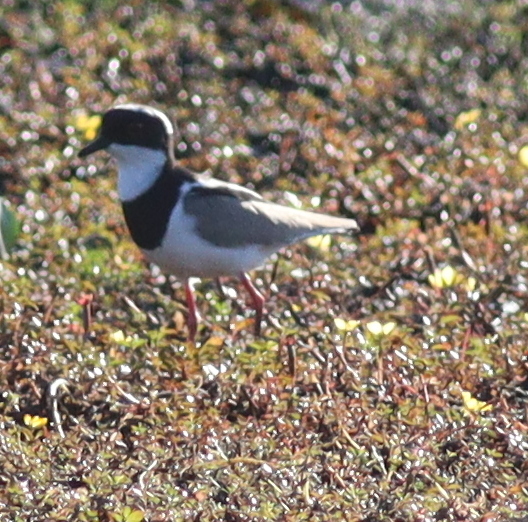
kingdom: Animalia
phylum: Chordata
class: Aves
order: Charadriiformes
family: Charadriidae
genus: Hoploxypterus
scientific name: Hoploxypterus cayanus
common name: Pied plover
